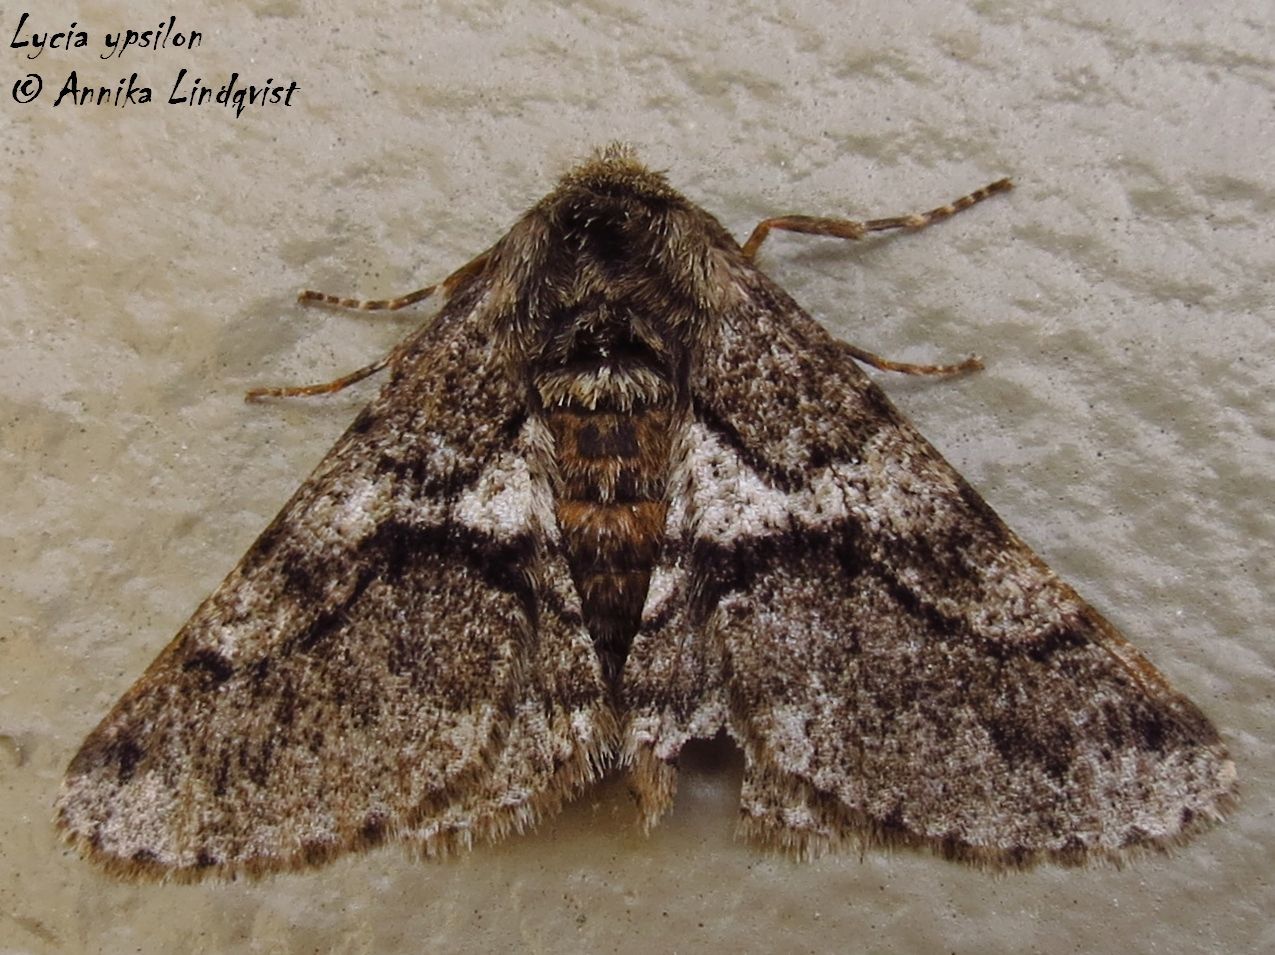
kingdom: Animalia
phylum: Arthropoda
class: Insecta
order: Lepidoptera
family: Geometridae
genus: Lycia
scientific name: Lycia ypsilon
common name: Wooly gray
